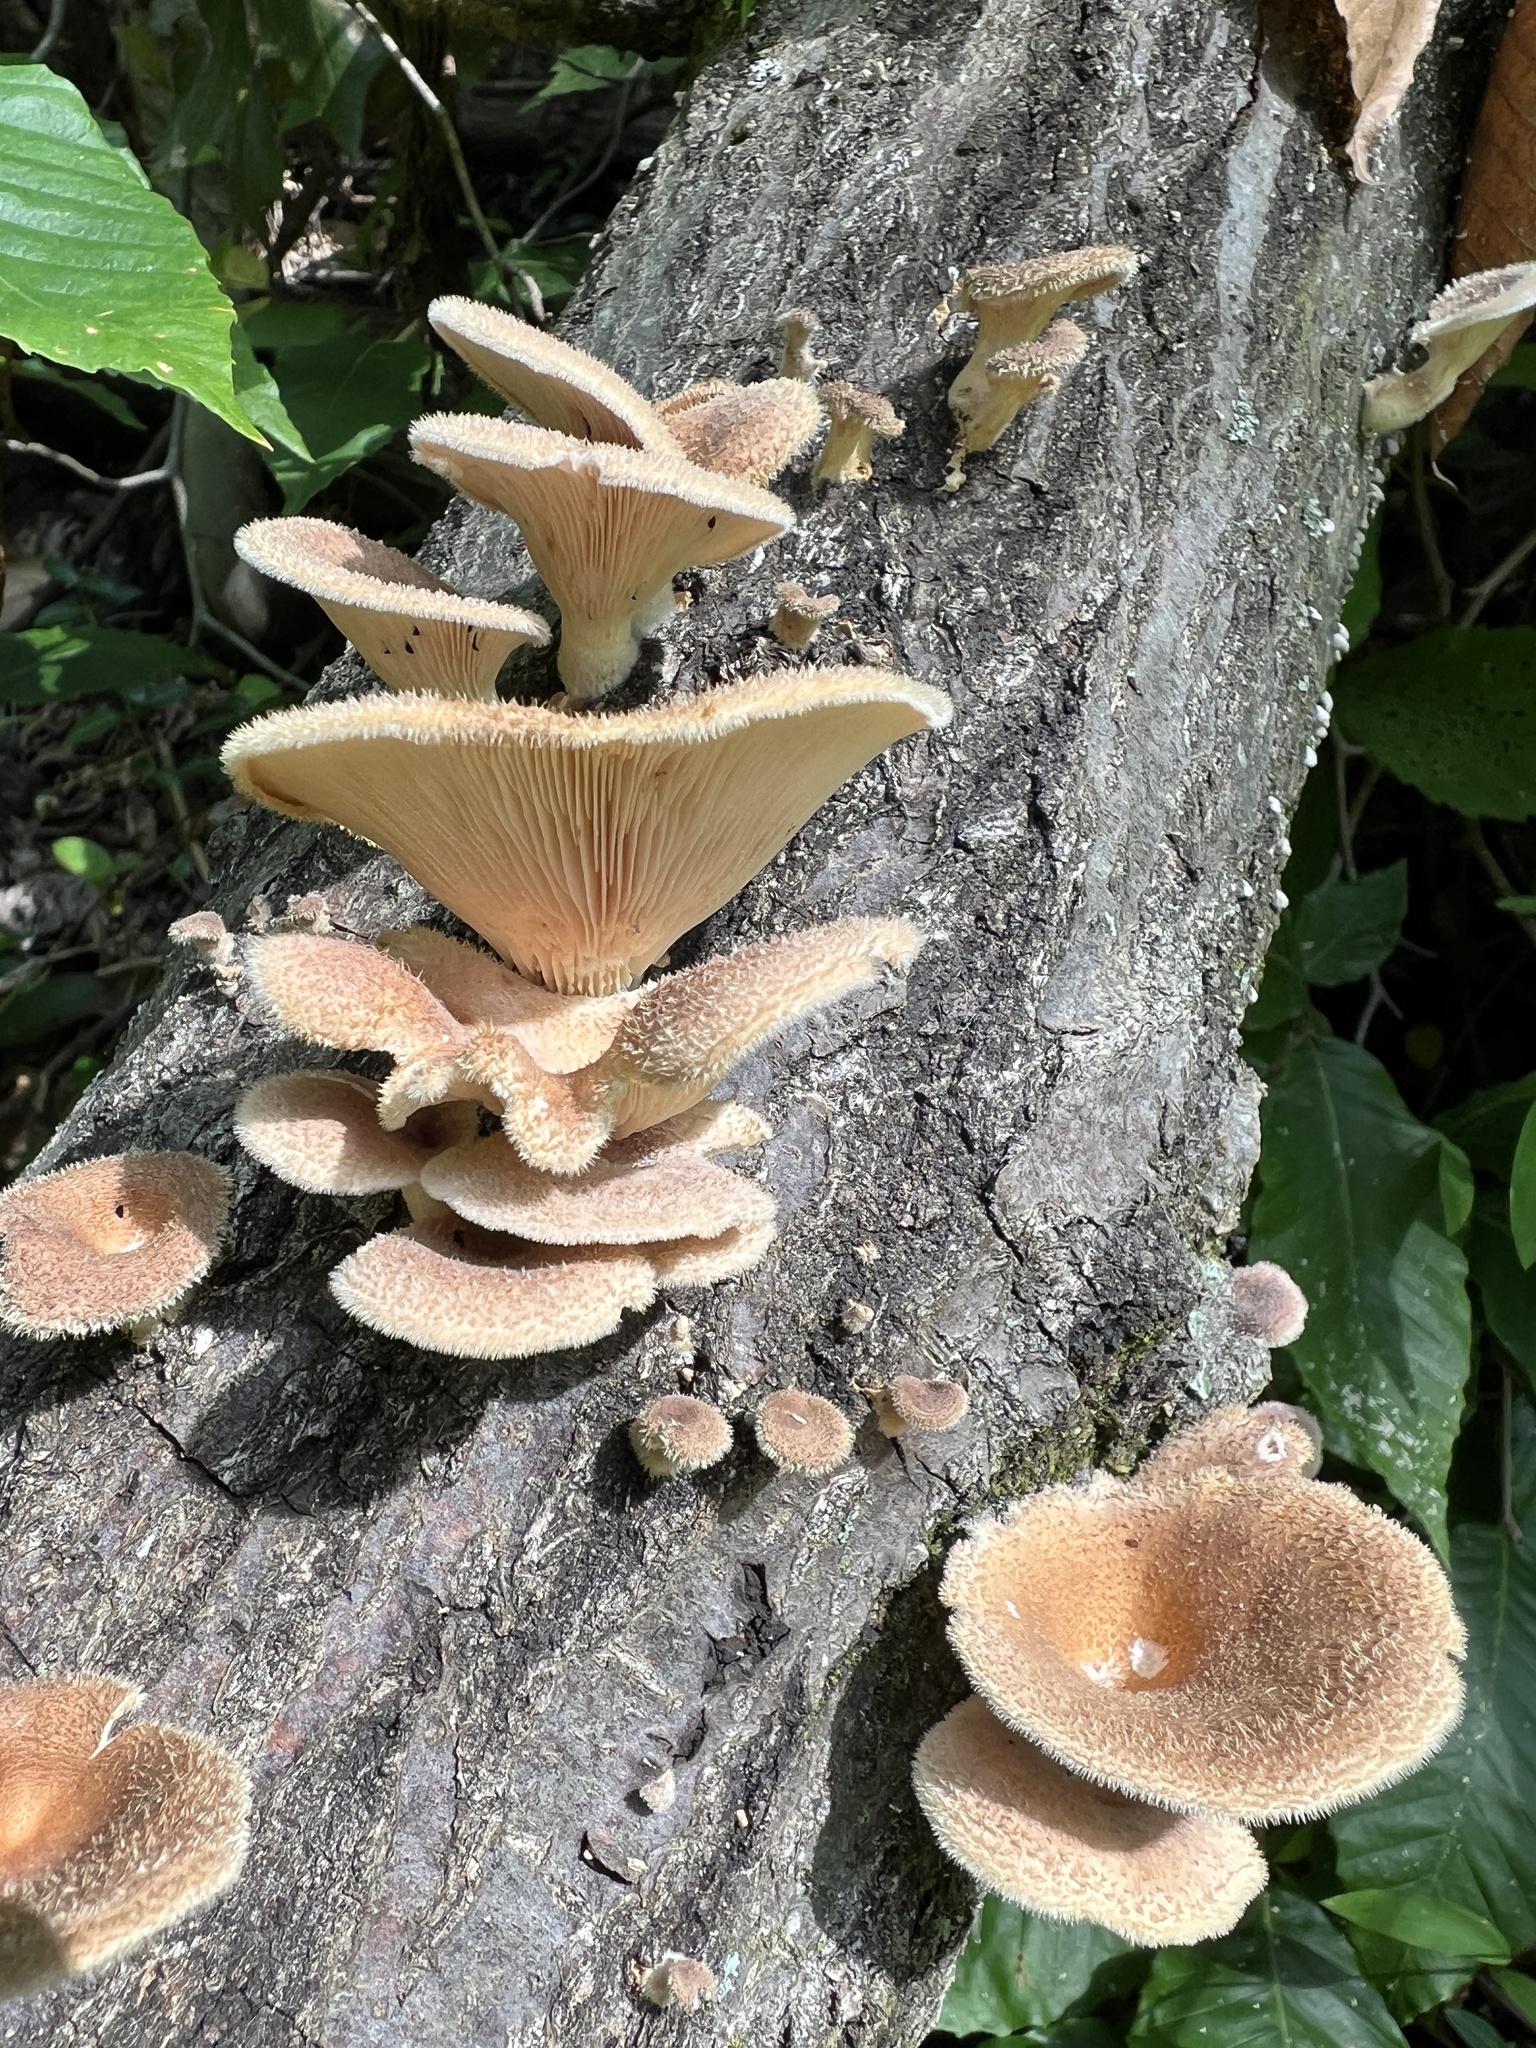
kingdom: Fungi
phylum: Basidiomycota
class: Agaricomycetes
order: Polyporales
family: Panaceae
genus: Panus
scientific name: Panus neostrigosus
